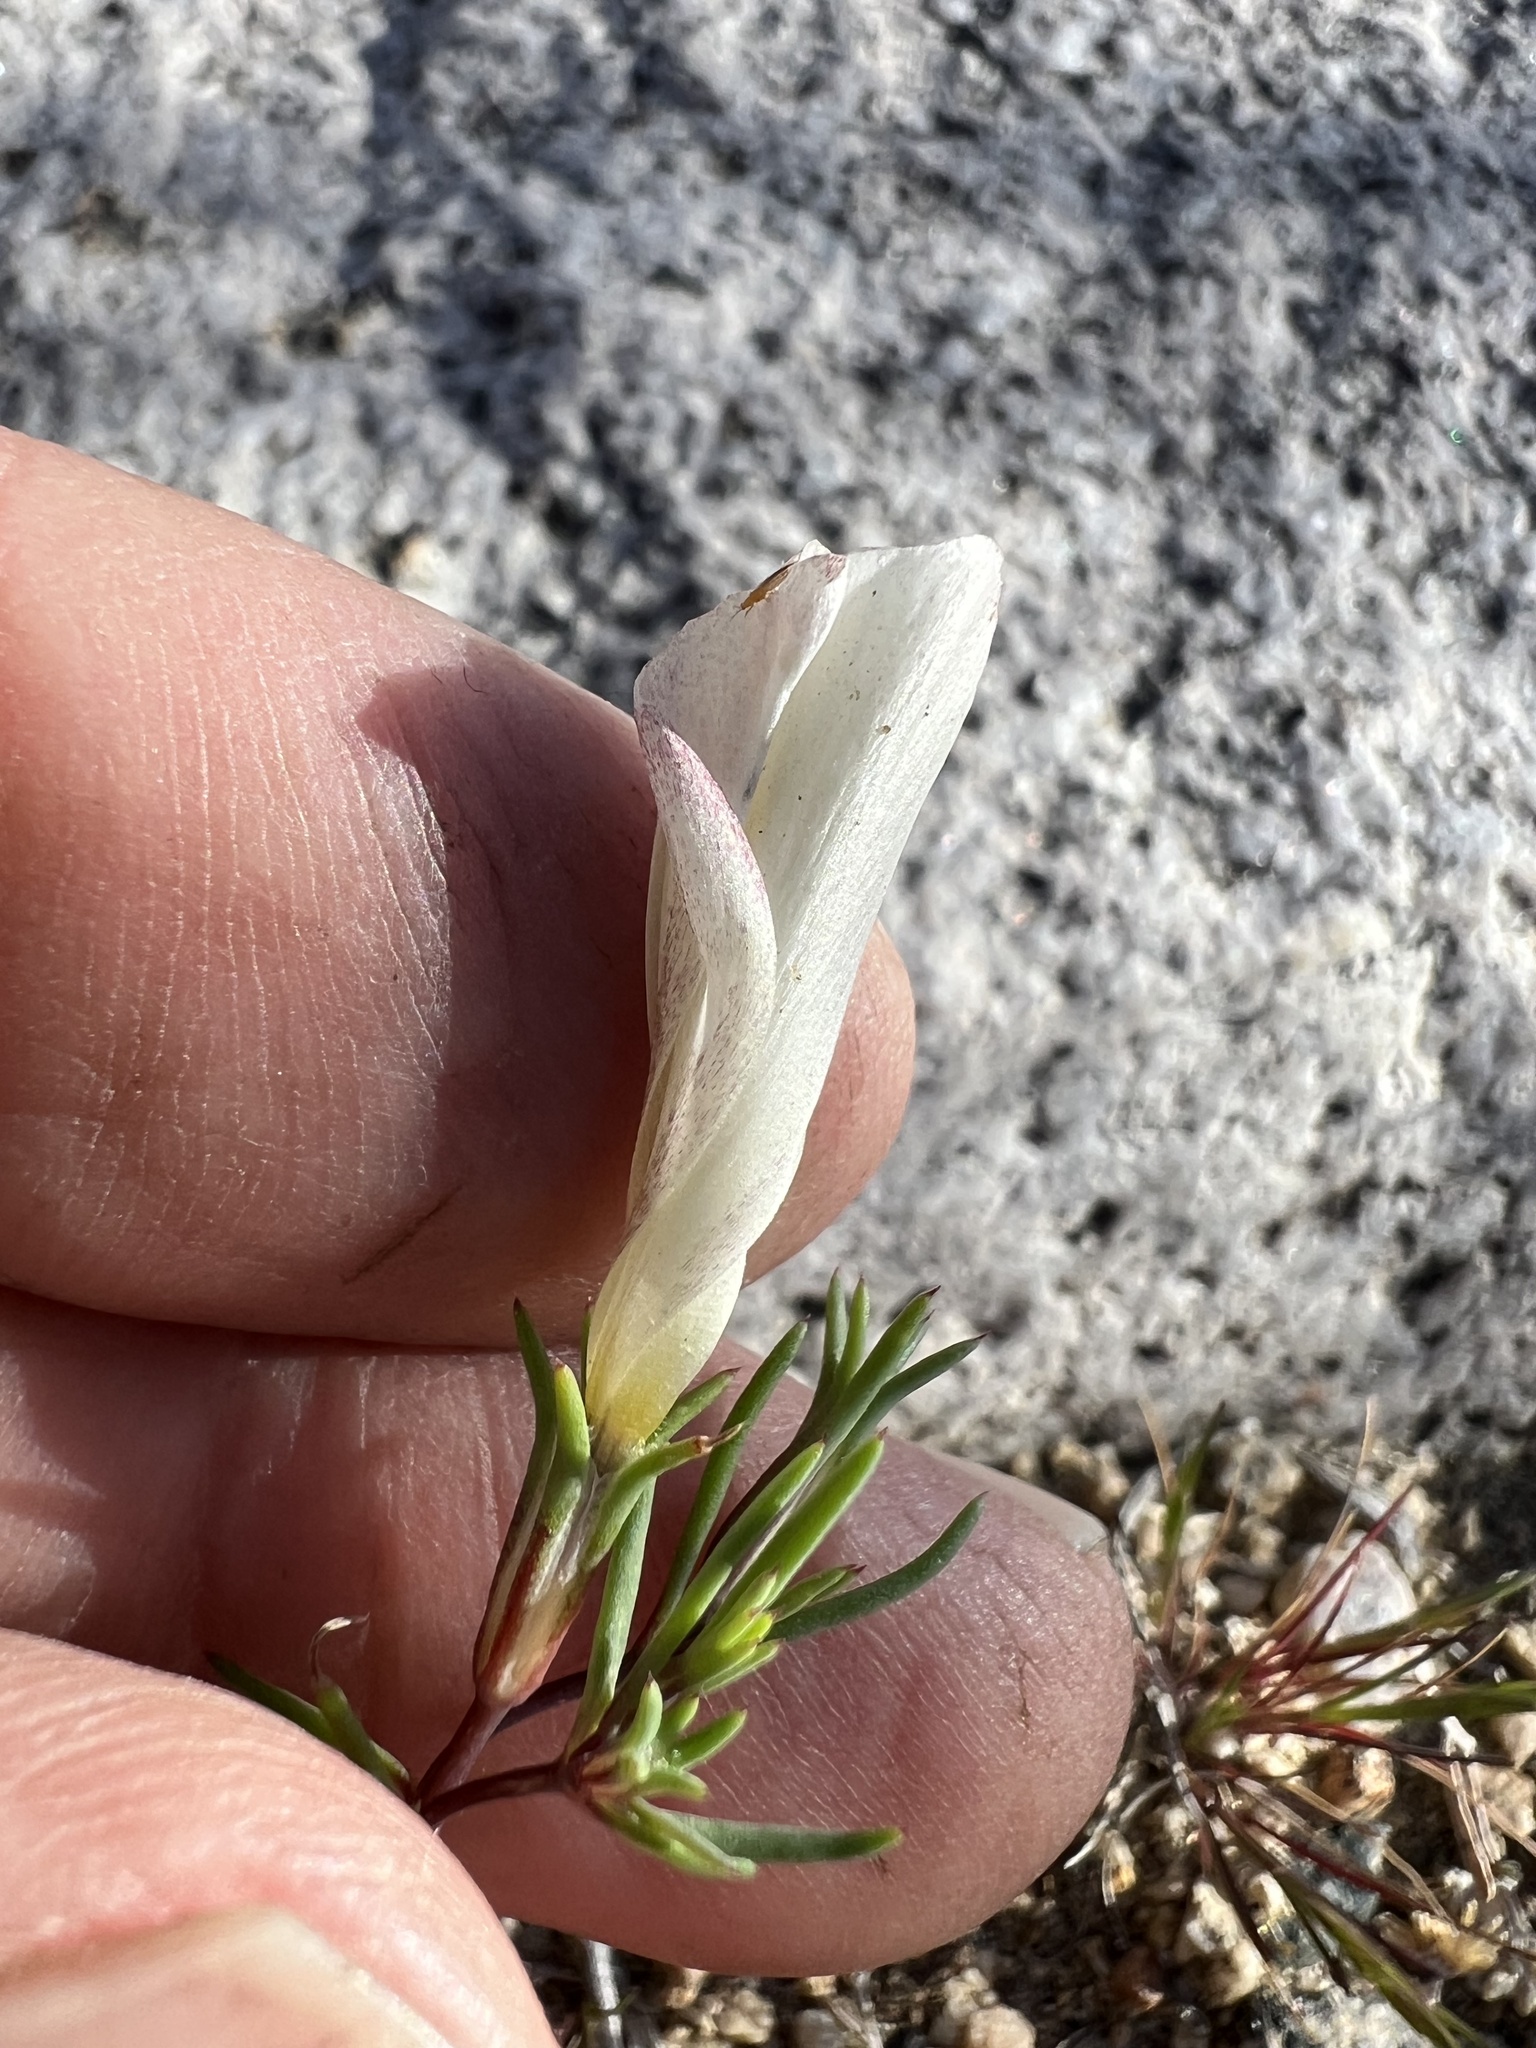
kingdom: Plantae
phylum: Tracheophyta
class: Magnoliopsida
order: Ericales
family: Polemoniaceae
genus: Linanthus
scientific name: Linanthus dichotomus
